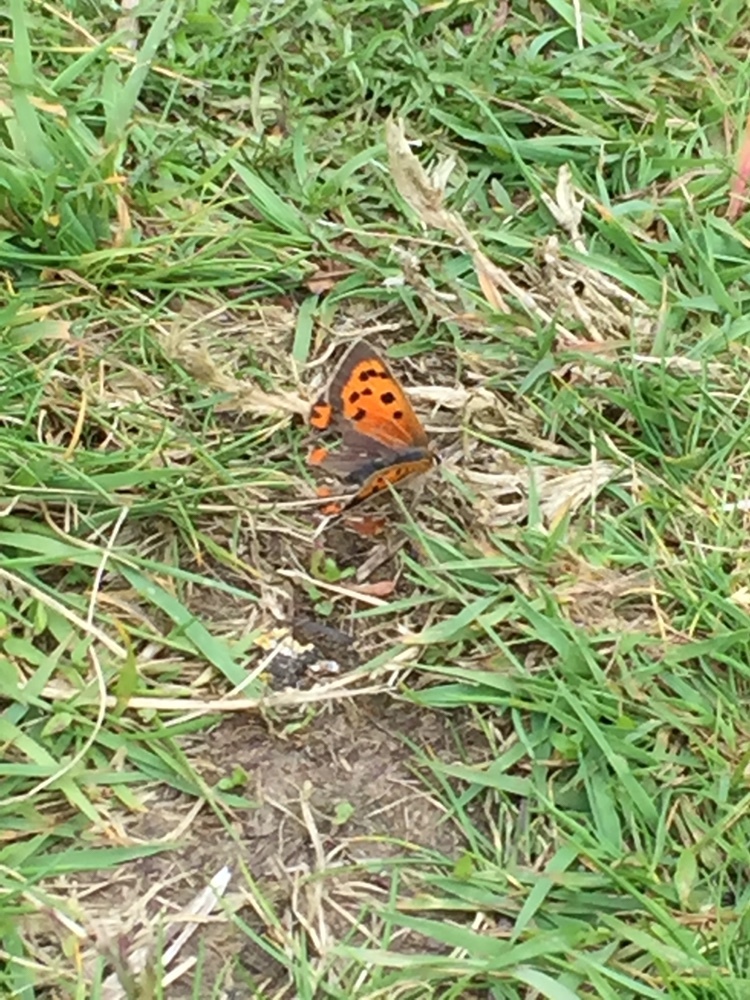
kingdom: Animalia
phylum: Arthropoda
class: Insecta
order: Lepidoptera
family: Lycaenidae
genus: Lycaena
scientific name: Lycaena phlaeas
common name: Small copper
